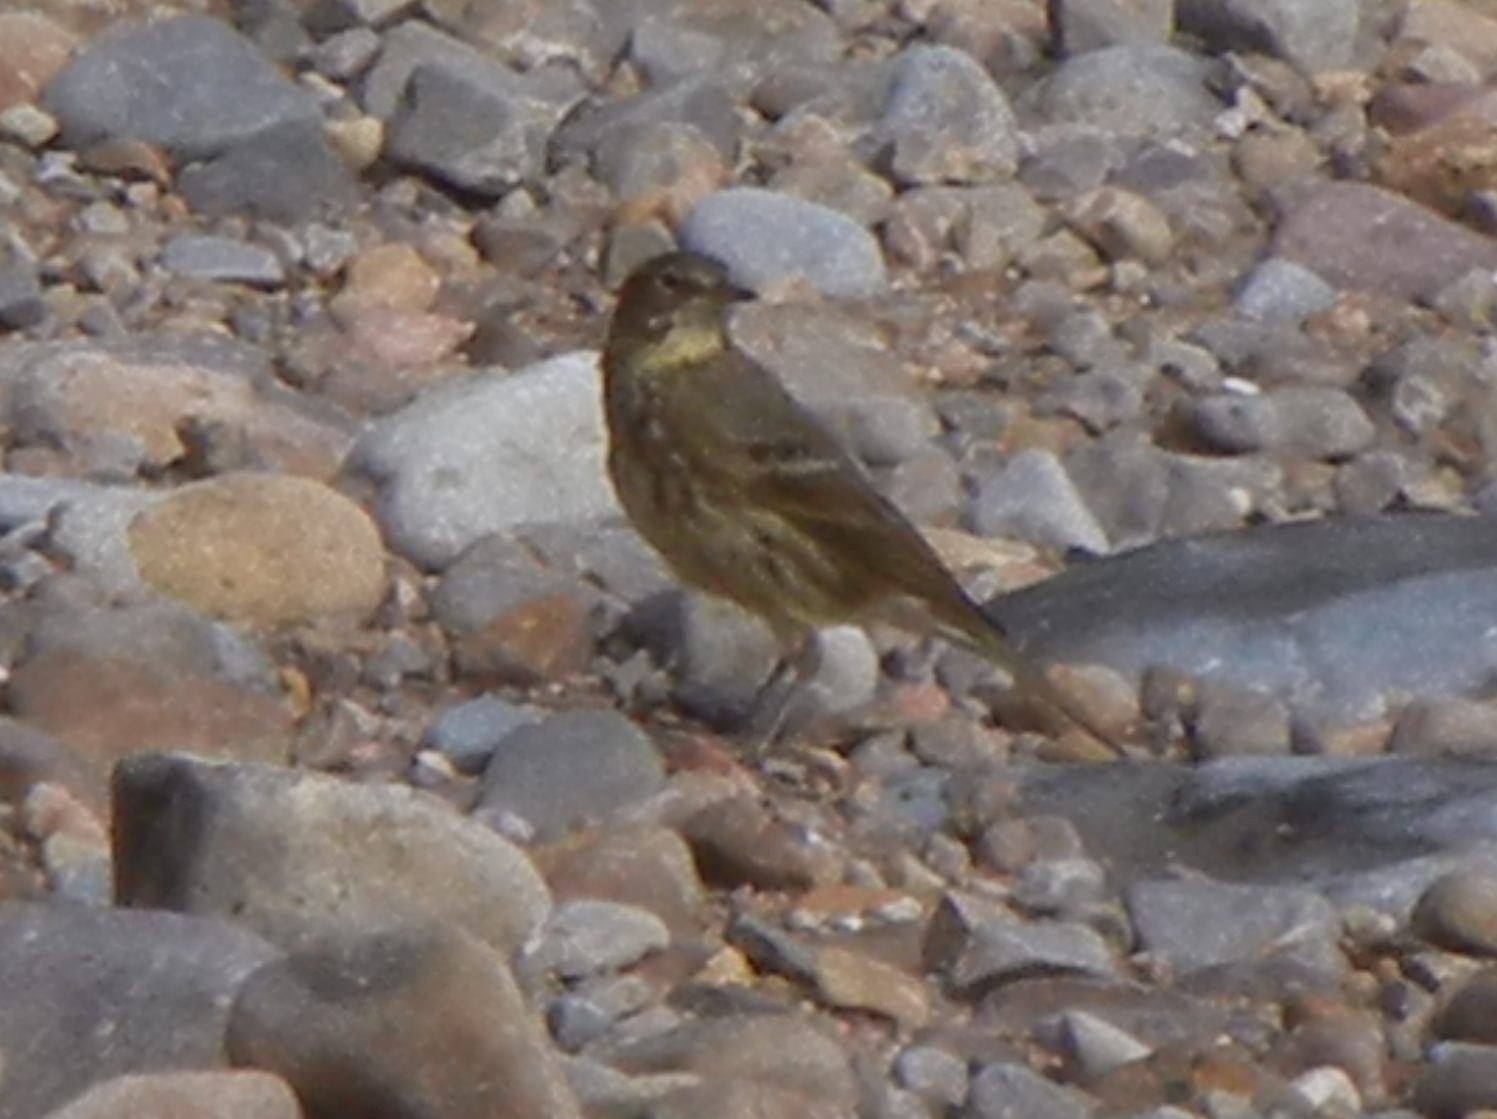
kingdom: Animalia
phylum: Chordata
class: Aves
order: Passeriformes
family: Motacillidae
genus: Anthus
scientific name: Anthus petrosus
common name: Eurasian rock pipit
